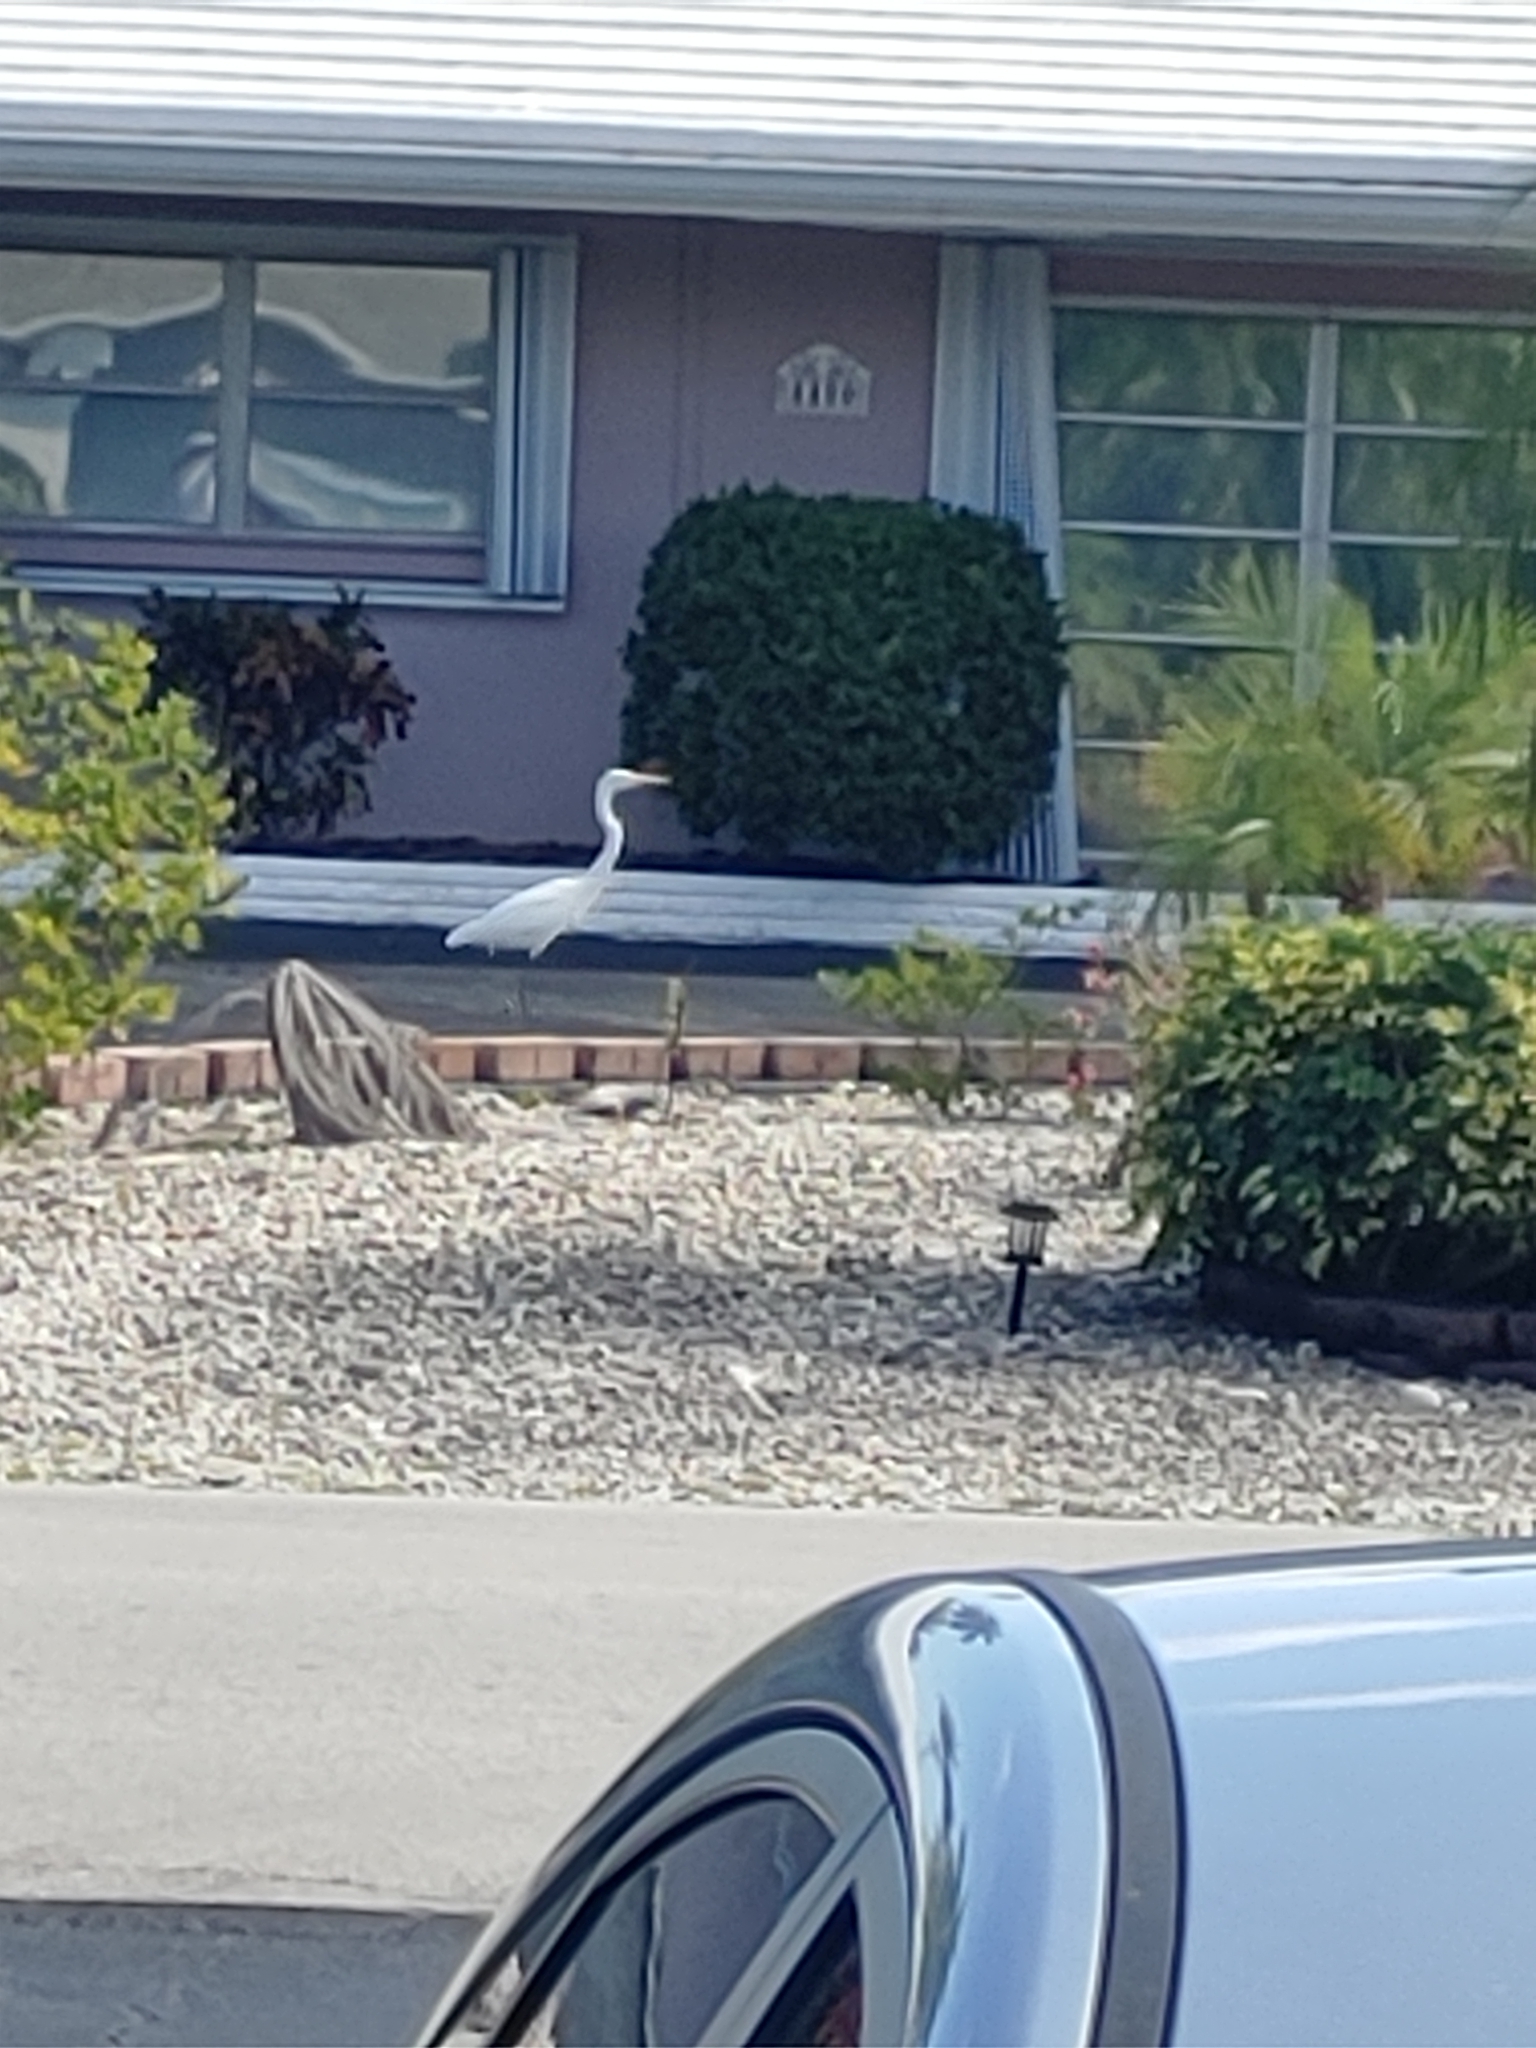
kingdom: Animalia
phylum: Chordata
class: Aves
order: Pelecaniformes
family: Ardeidae
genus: Ardea
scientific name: Ardea alba
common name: Great egret
